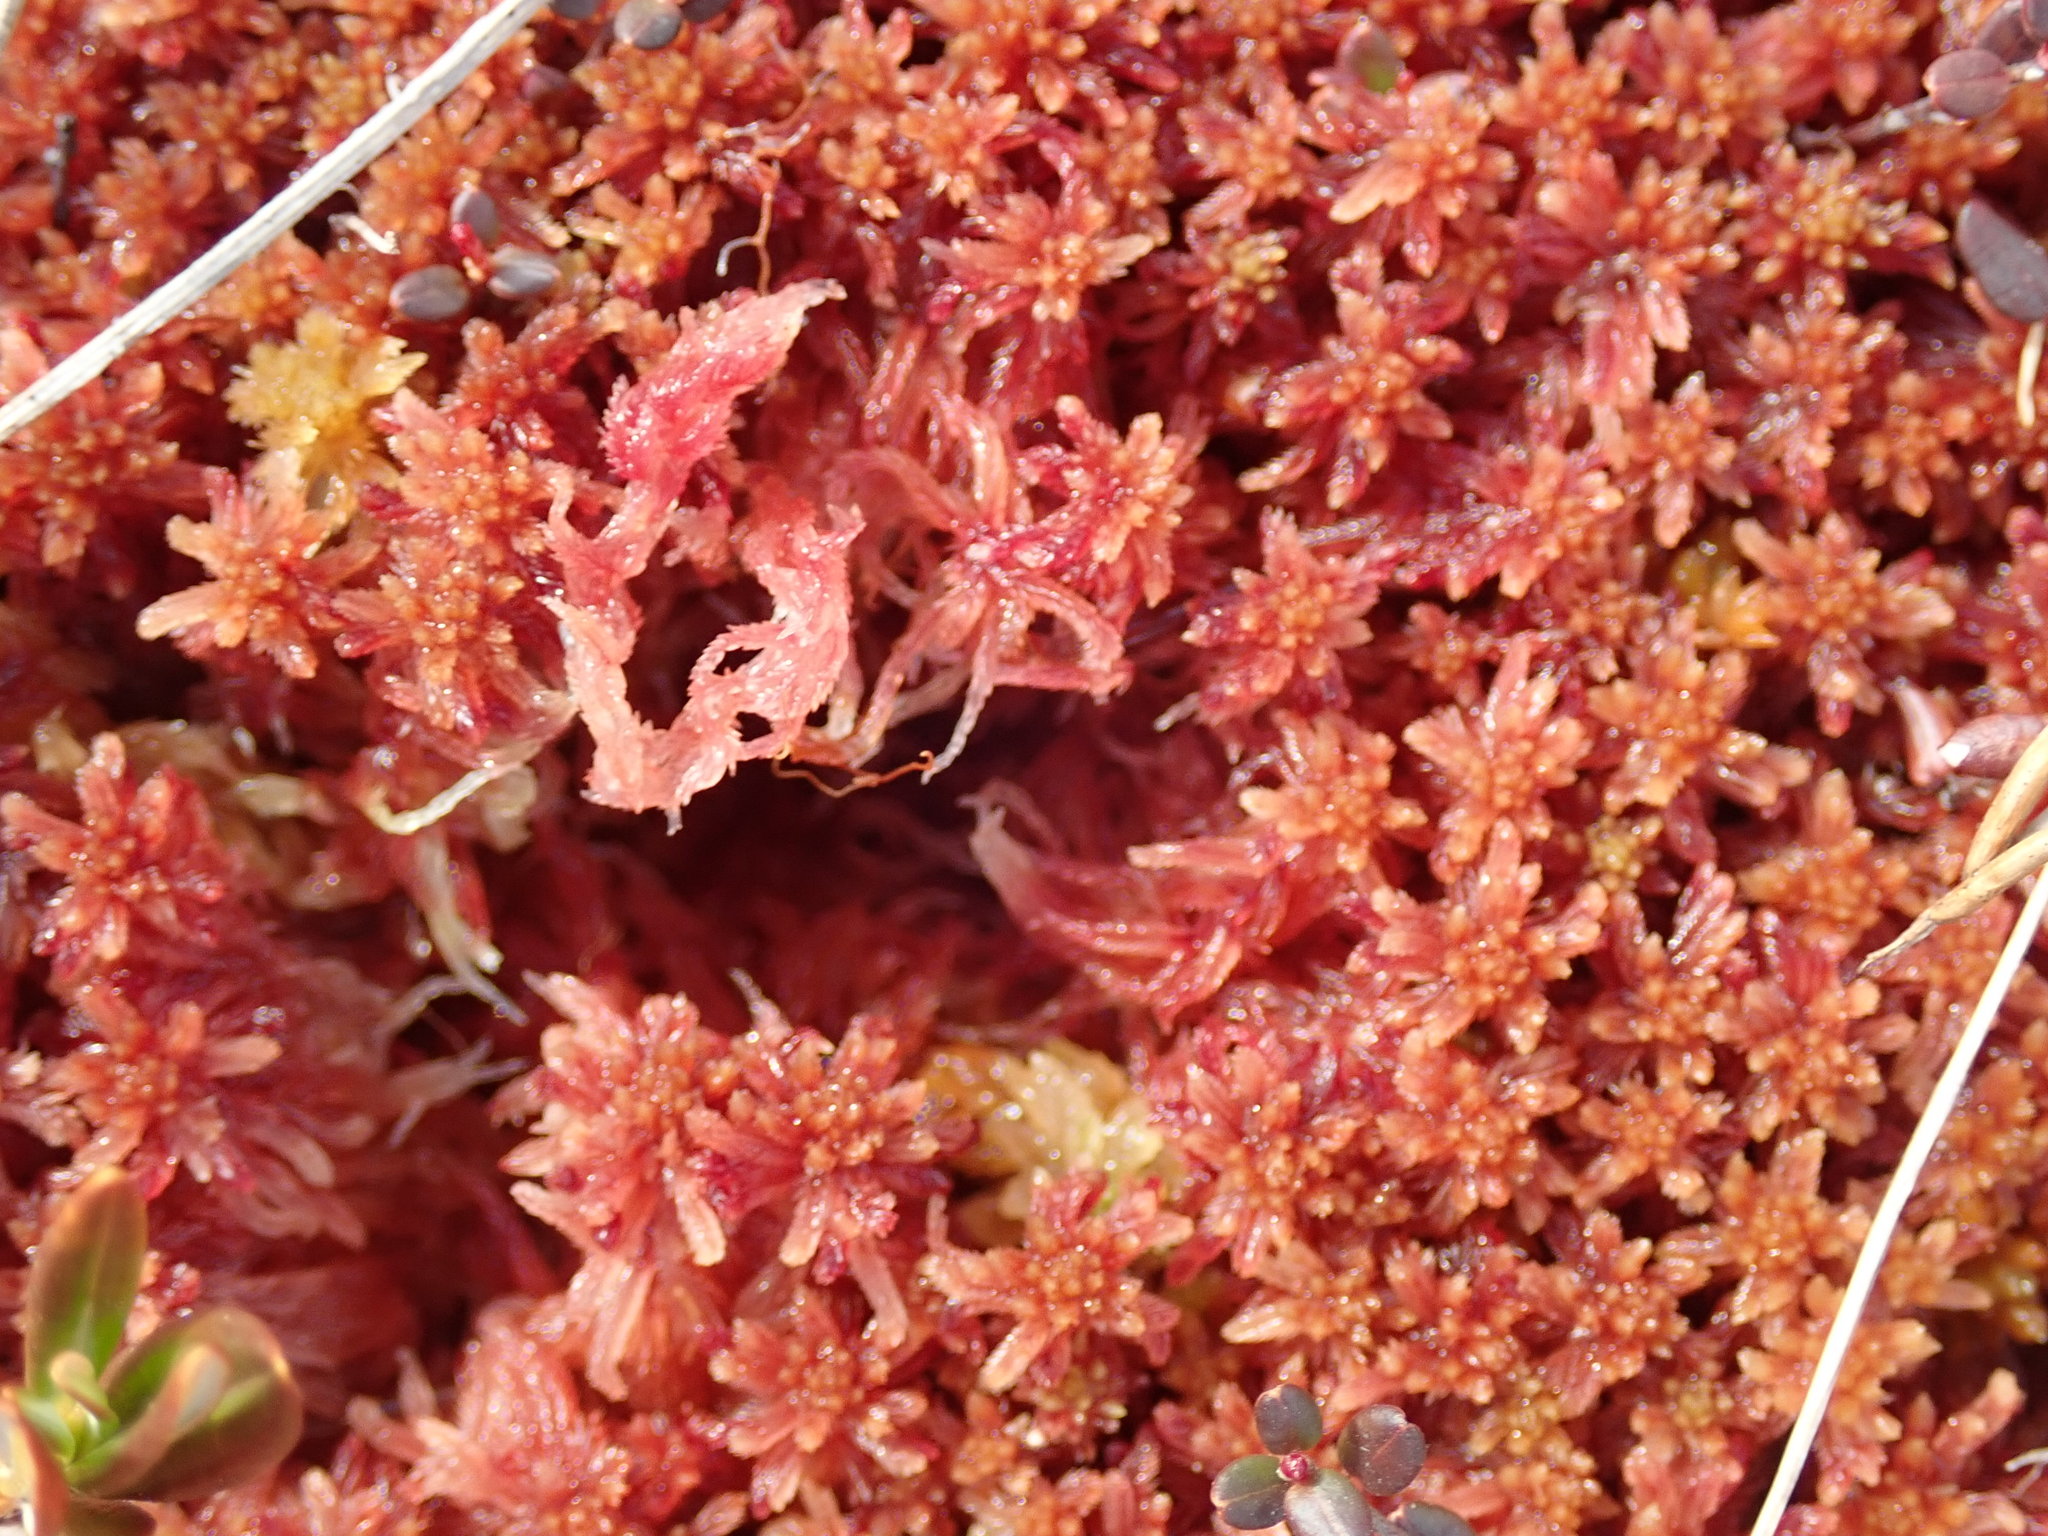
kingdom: Plantae
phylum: Bryophyta
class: Sphagnopsida
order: Sphagnales
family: Sphagnaceae
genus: Sphagnum
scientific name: Sphagnum rubellum
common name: Red peat moss
